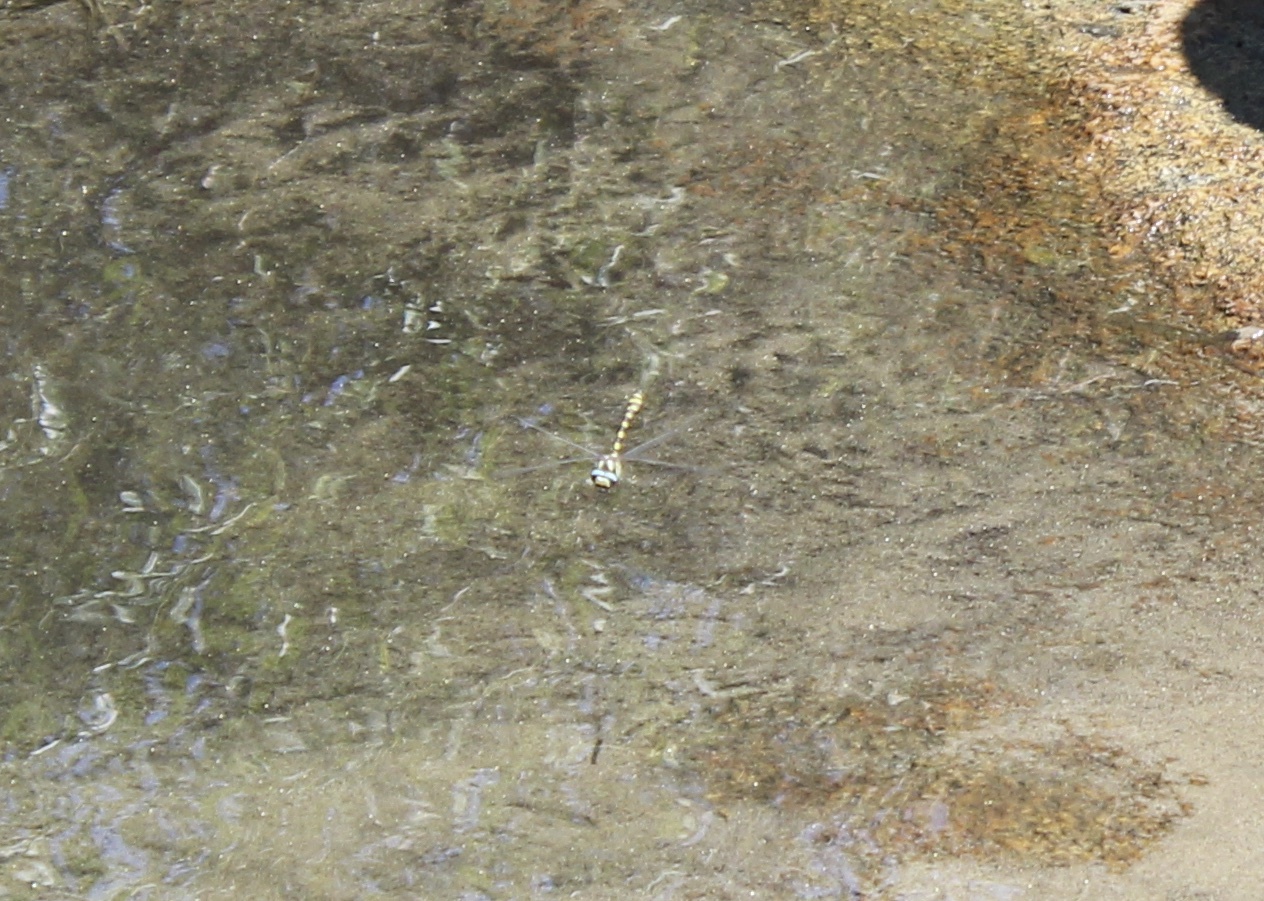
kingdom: Animalia
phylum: Arthropoda
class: Insecta
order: Odonata
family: Cordulegastridae
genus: Cordulegaster
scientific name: Cordulegaster dorsalis
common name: Pacific spiketail
